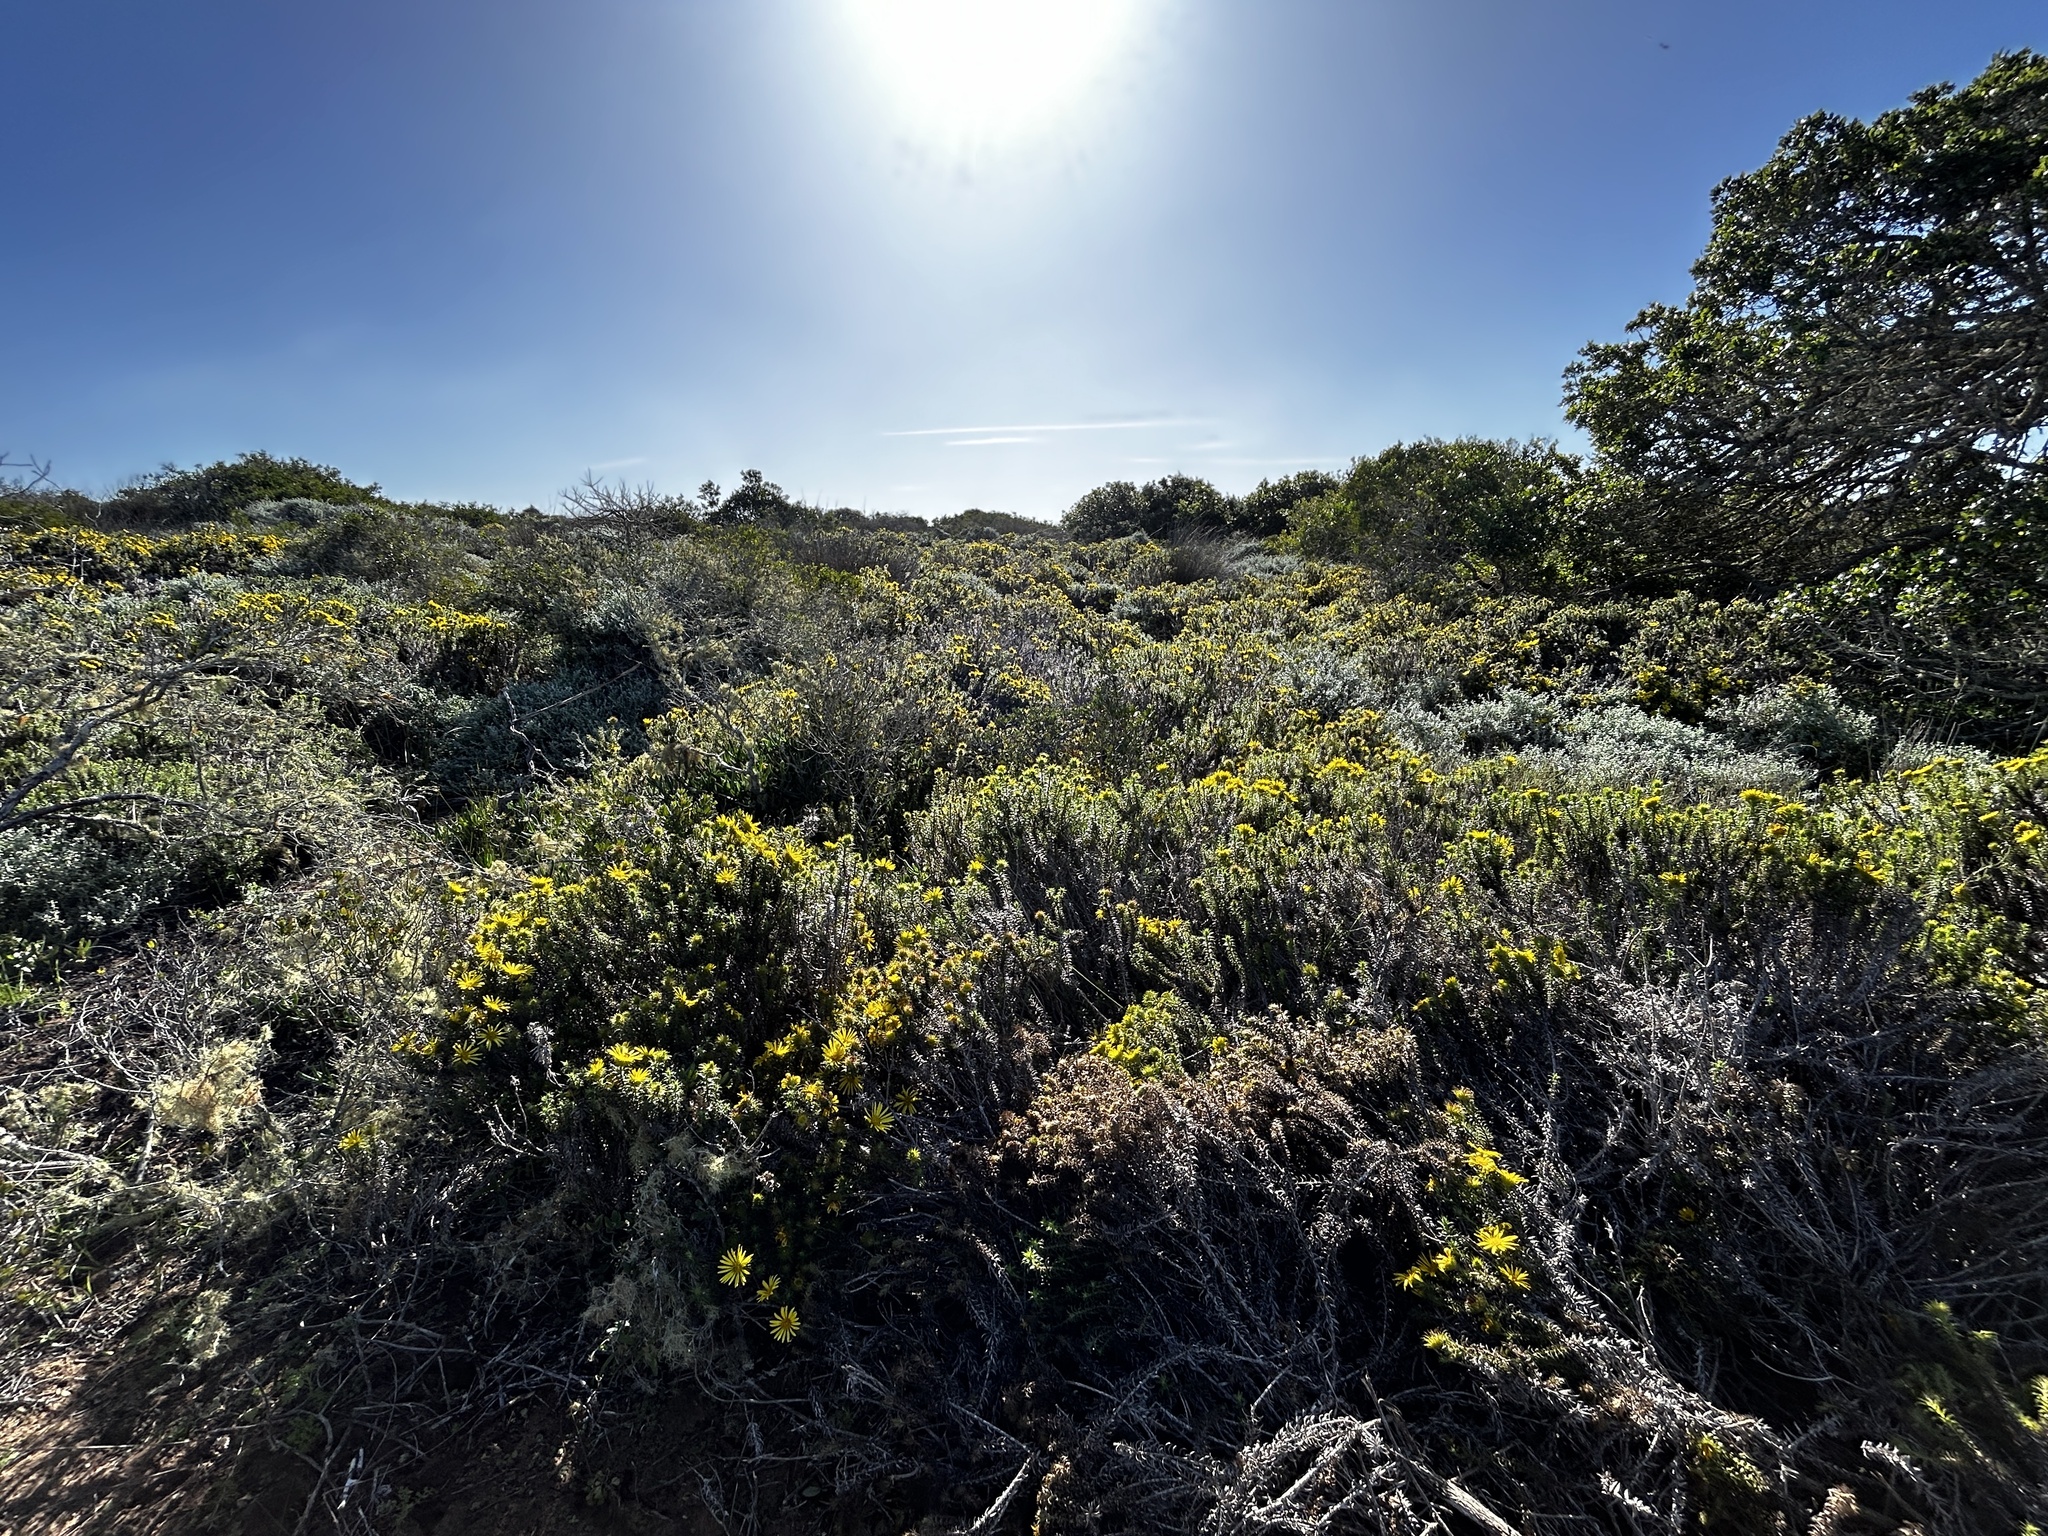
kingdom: Plantae
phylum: Tracheophyta
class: Magnoliopsida
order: Asterales
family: Asteraceae
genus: Cullumia
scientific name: Cullumia carlinoides
